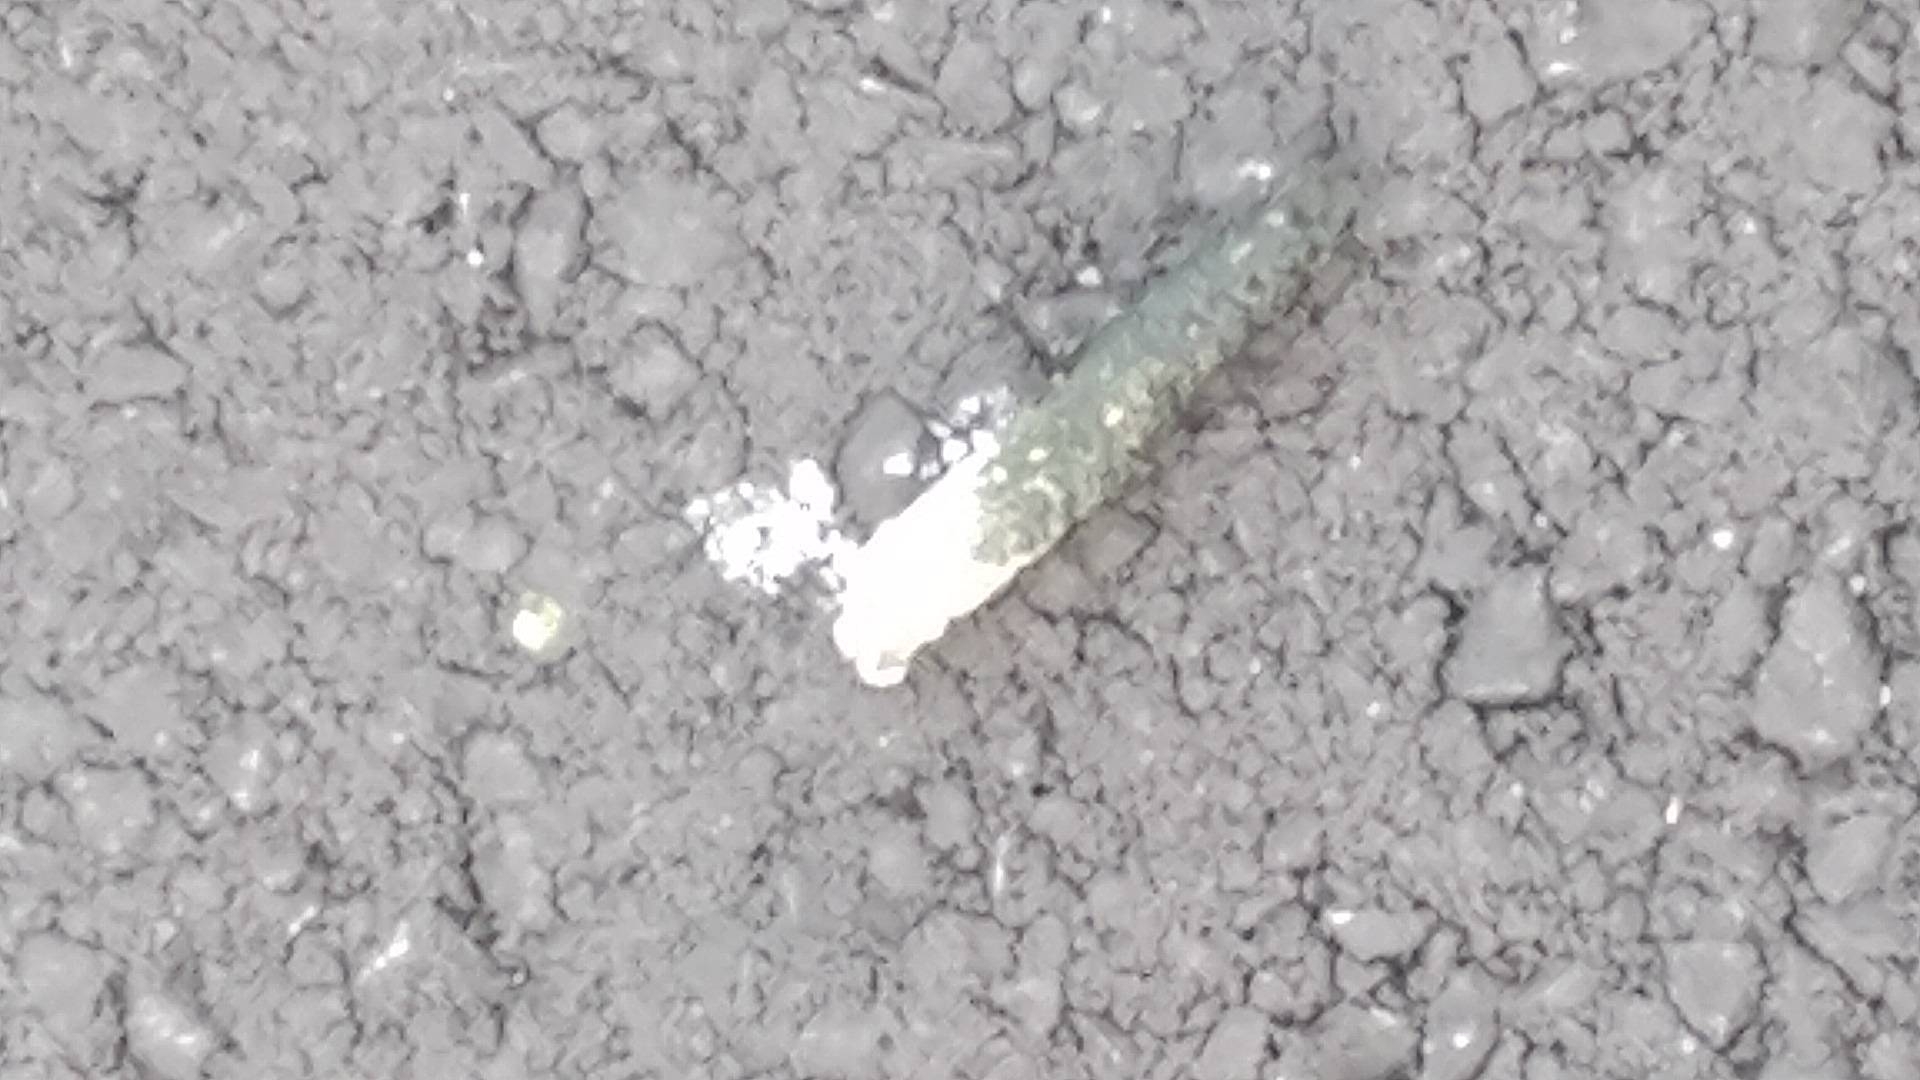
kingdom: Animalia
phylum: Chordata
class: Aves
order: Anseriformes
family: Anatidae
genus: Branta
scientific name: Branta canadensis
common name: Canada goose
